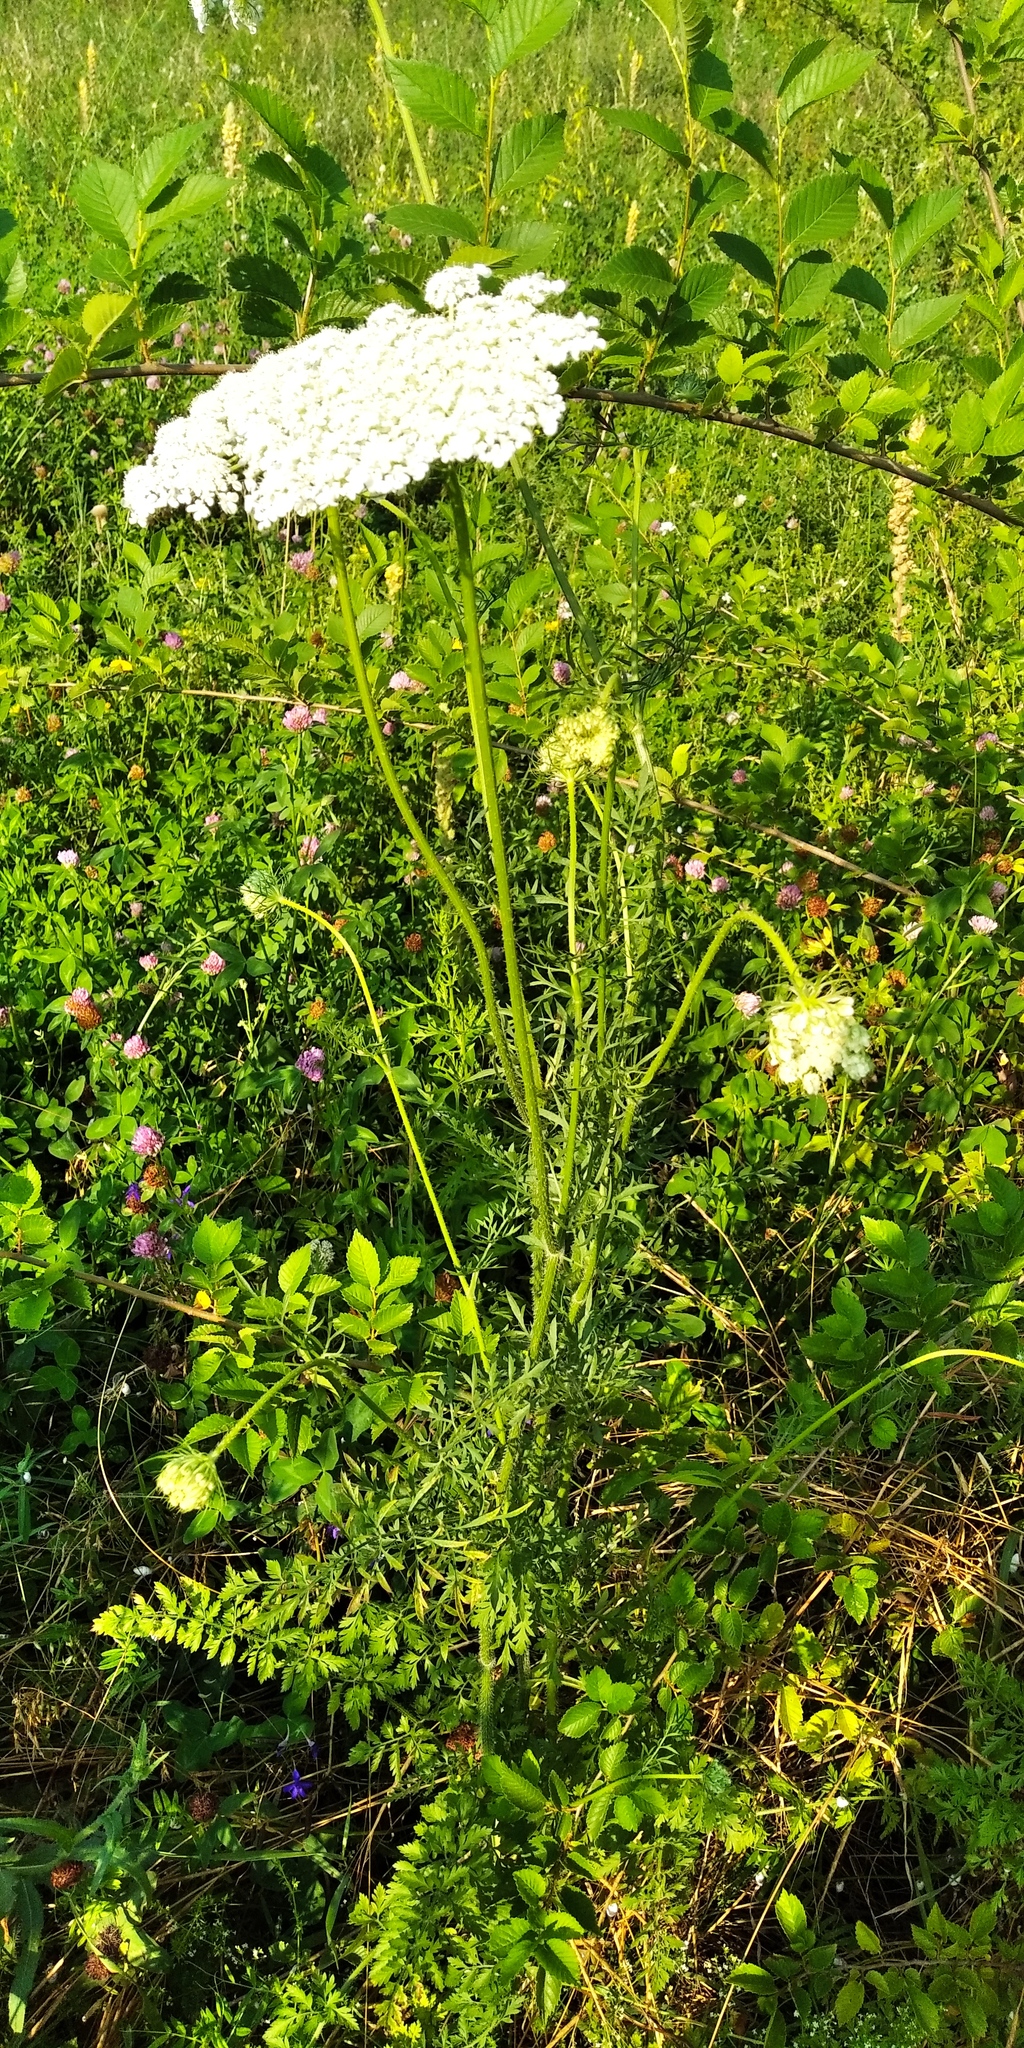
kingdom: Plantae
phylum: Tracheophyta
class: Magnoliopsida
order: Apiales
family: Apiaceae
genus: Daucus
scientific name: Daucus carota
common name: Wild carrot
